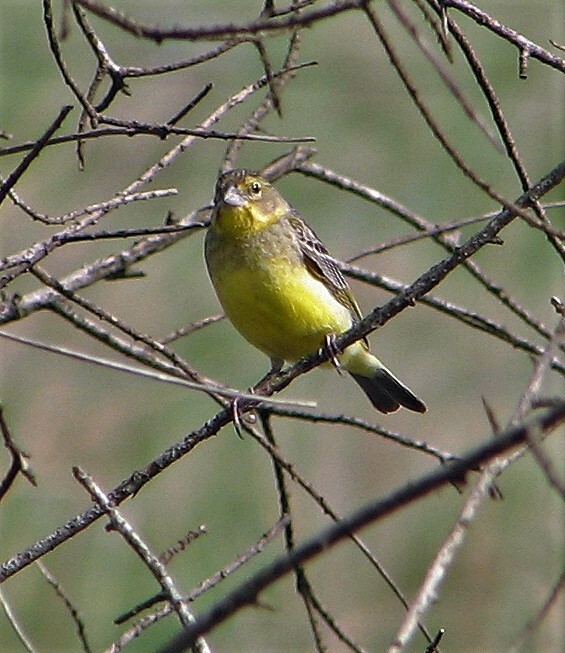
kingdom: Animalia
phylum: Chordata
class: Aves
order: Passeriformes
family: Thraupidae
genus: Sicalis
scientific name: Sicalis luteola
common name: Grassland yellow-finch
